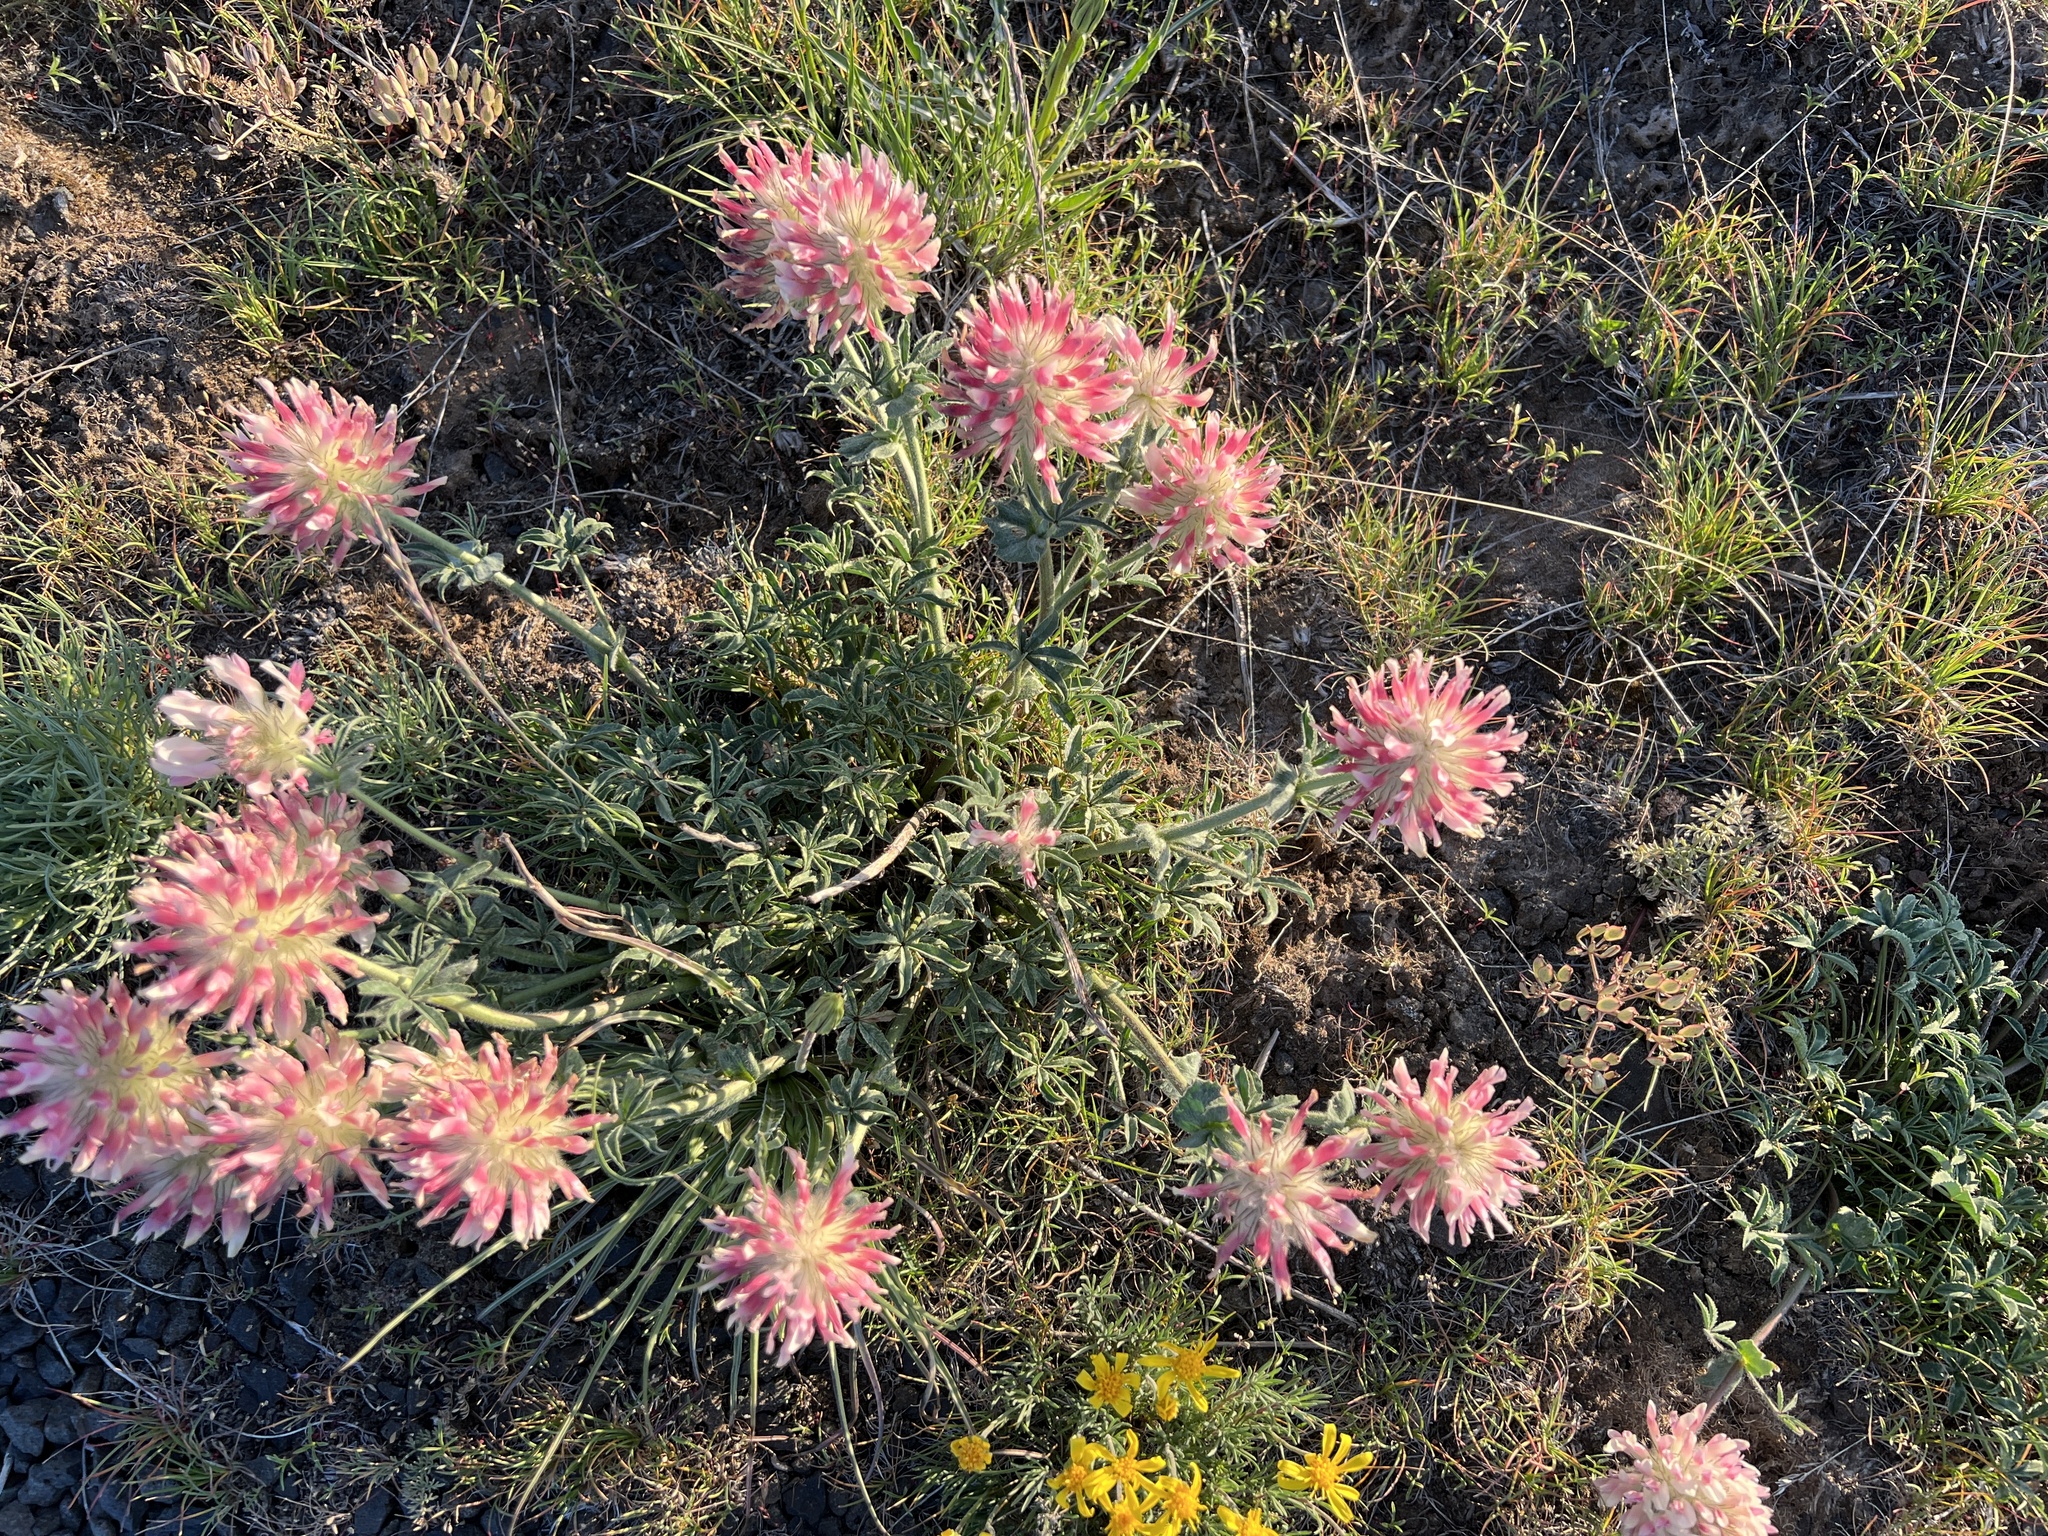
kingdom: Plantae
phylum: Tracheophyta
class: Magnoliopsida
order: Fabales
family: Fabaceae
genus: Trifolium
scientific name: Trifolium macrocephalum
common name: Large-head clover
